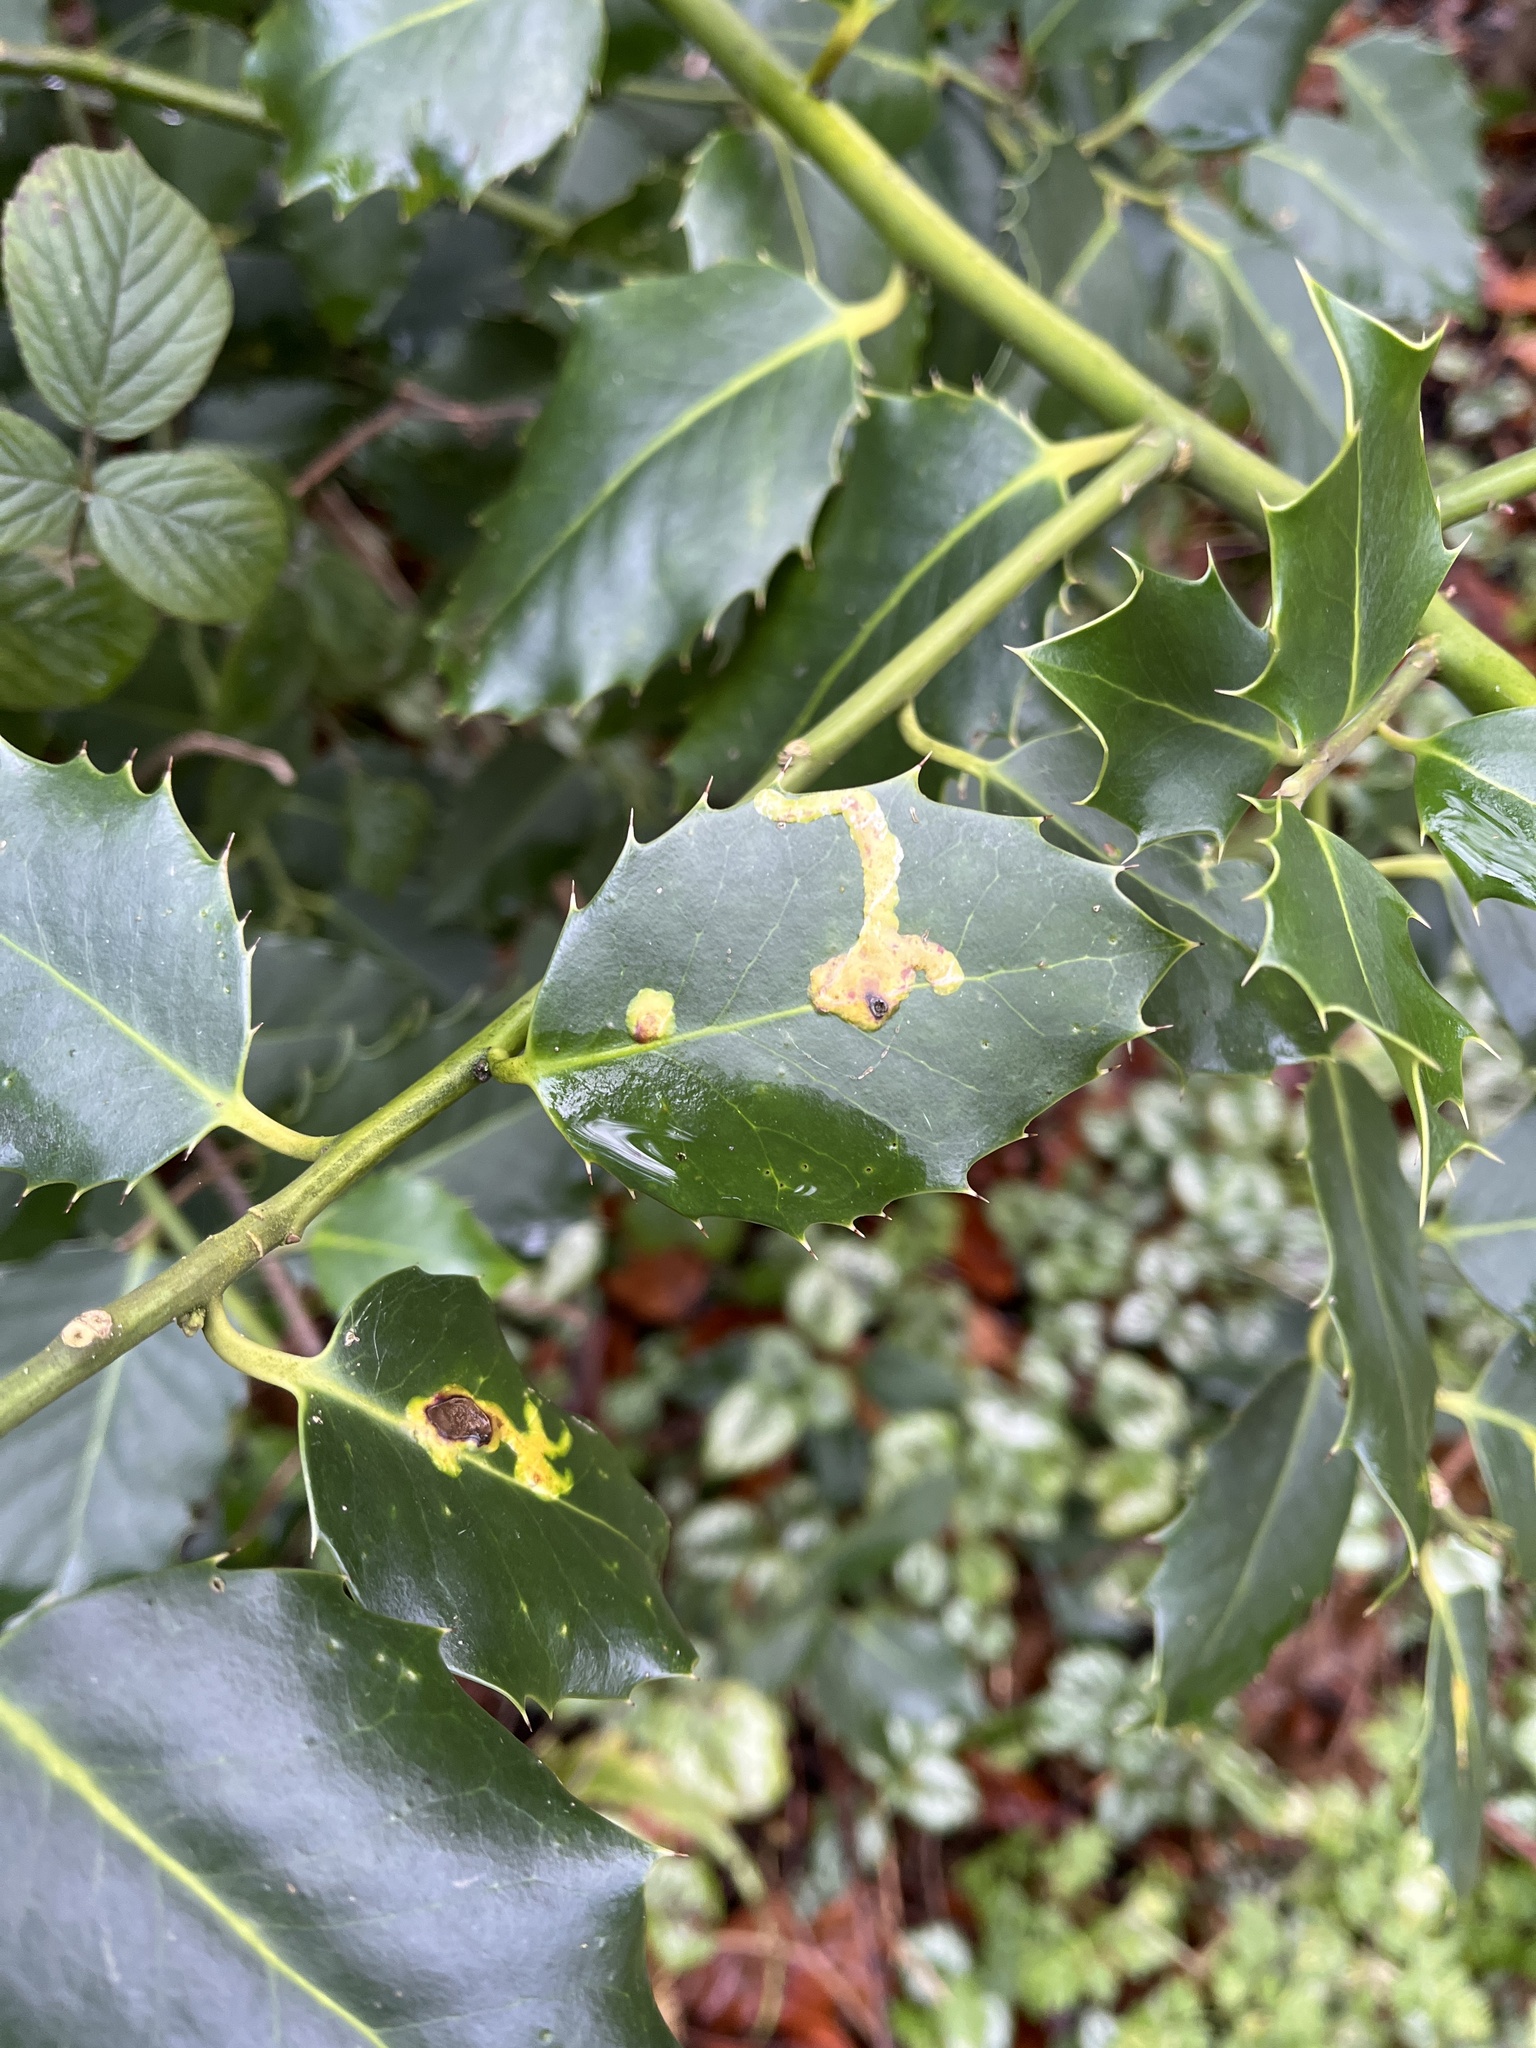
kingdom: Animalia
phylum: Arthropoda
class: Insecta
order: Diptera
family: Agromyzidae
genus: Phytomyza
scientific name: Phytomyza ilicis
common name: Holly leafminer
